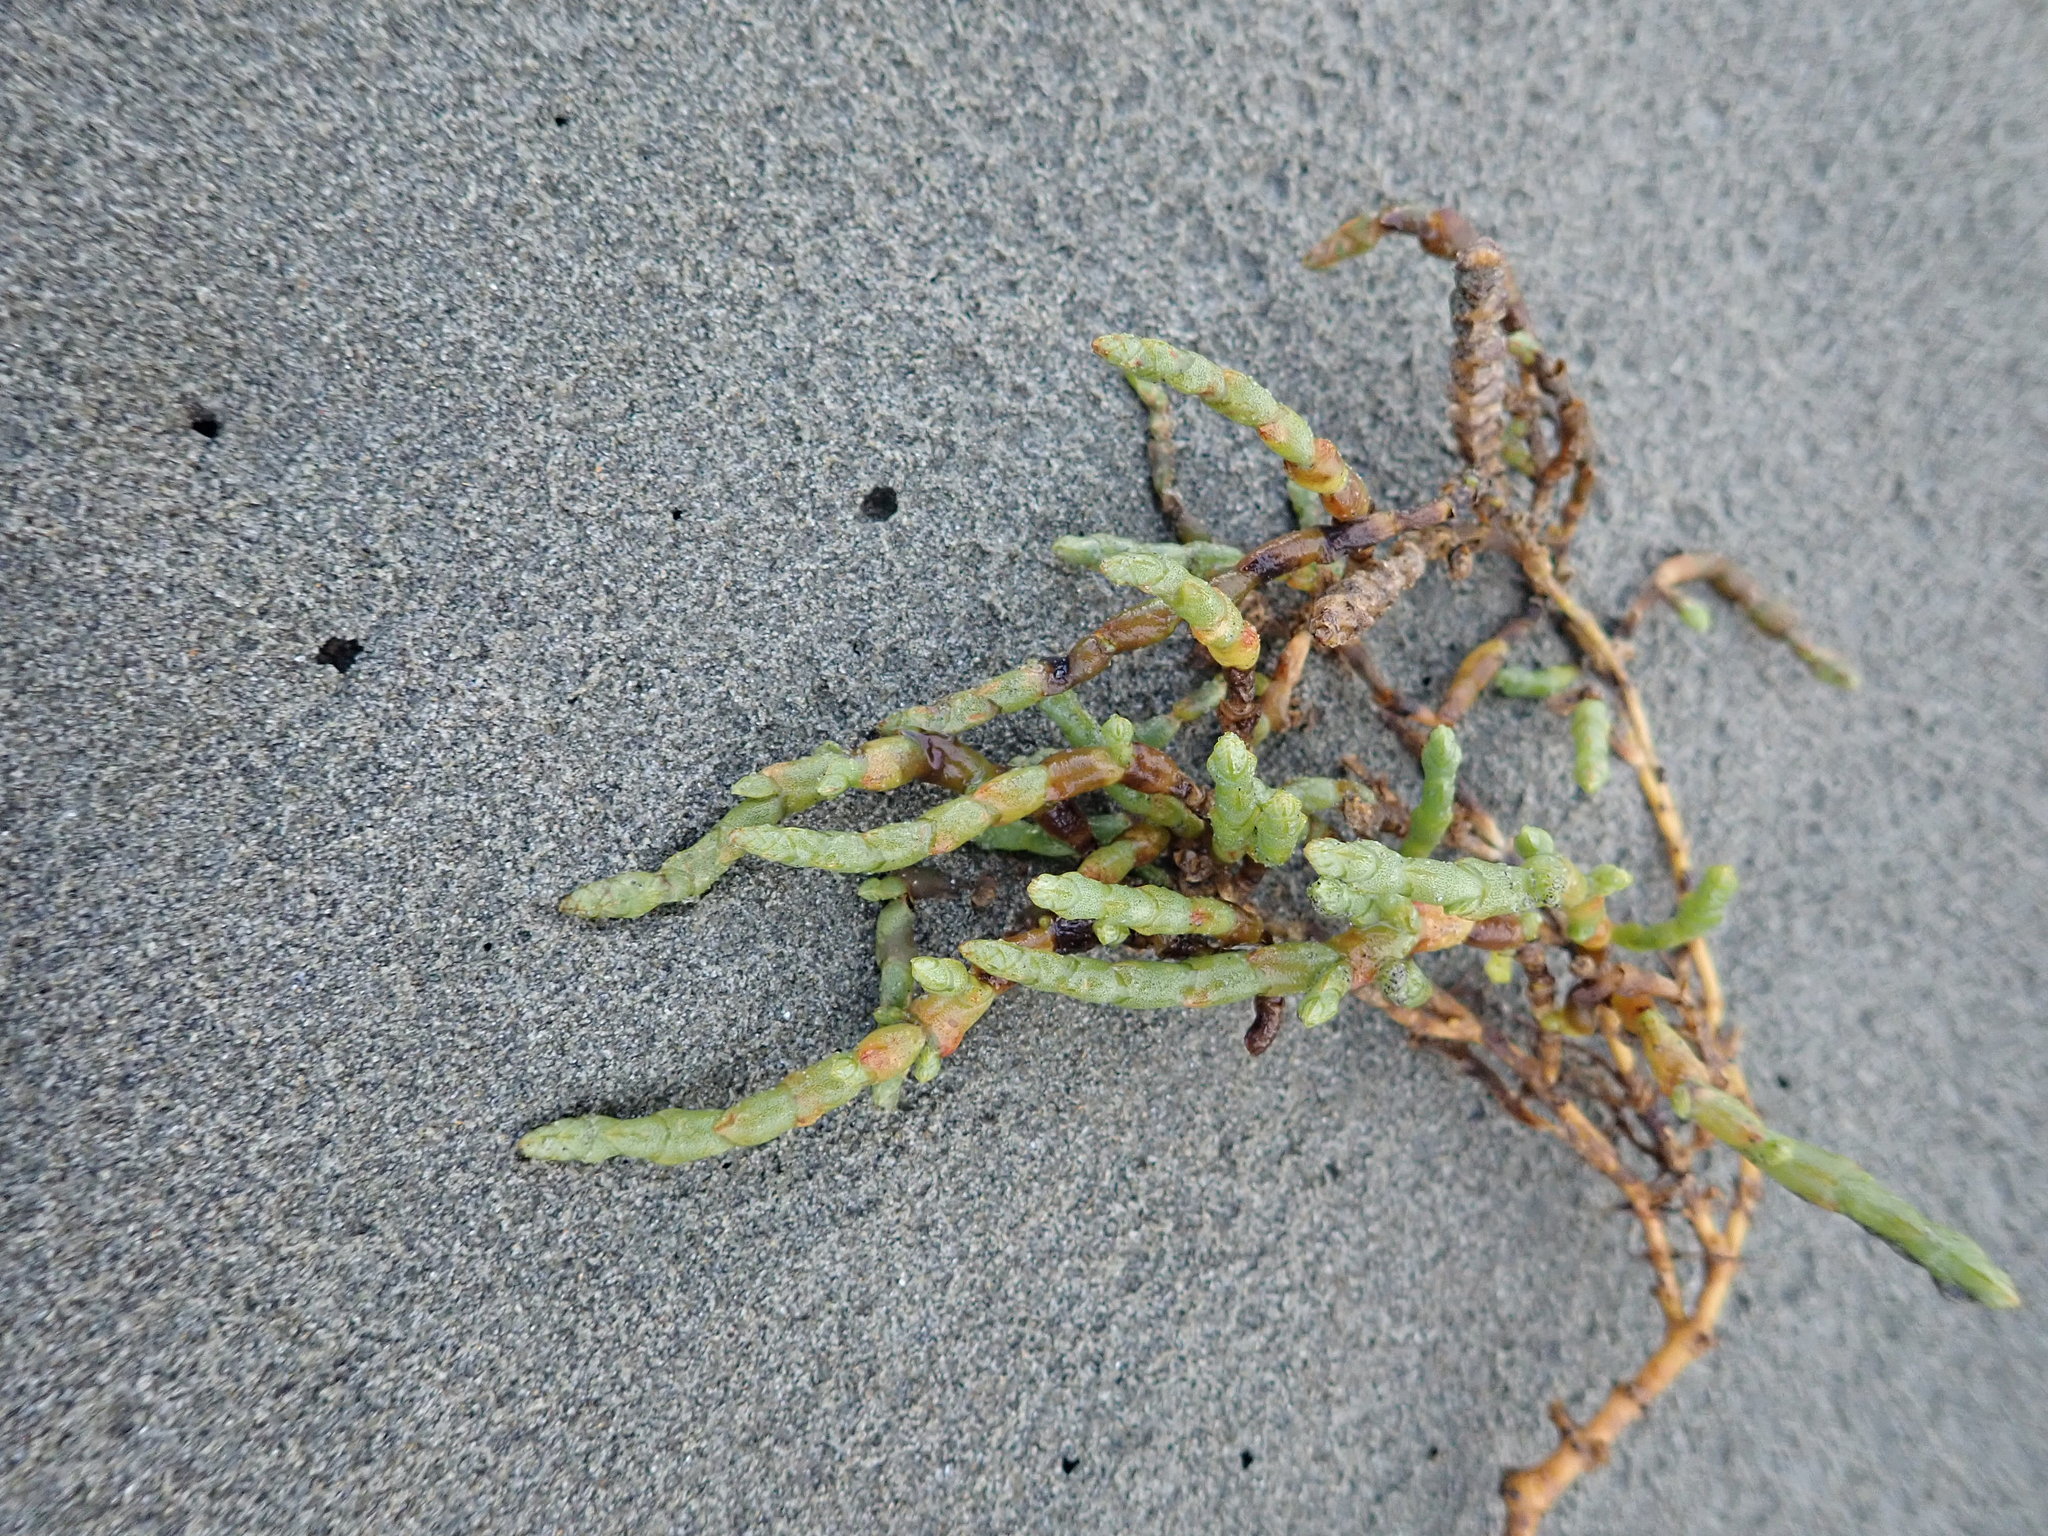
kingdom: Plantae
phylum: Tracheophyta
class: Magnoliopsida
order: Caryophyllales
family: Amaranthaceae
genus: Salicornia
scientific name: Salicornia quinqueflora
